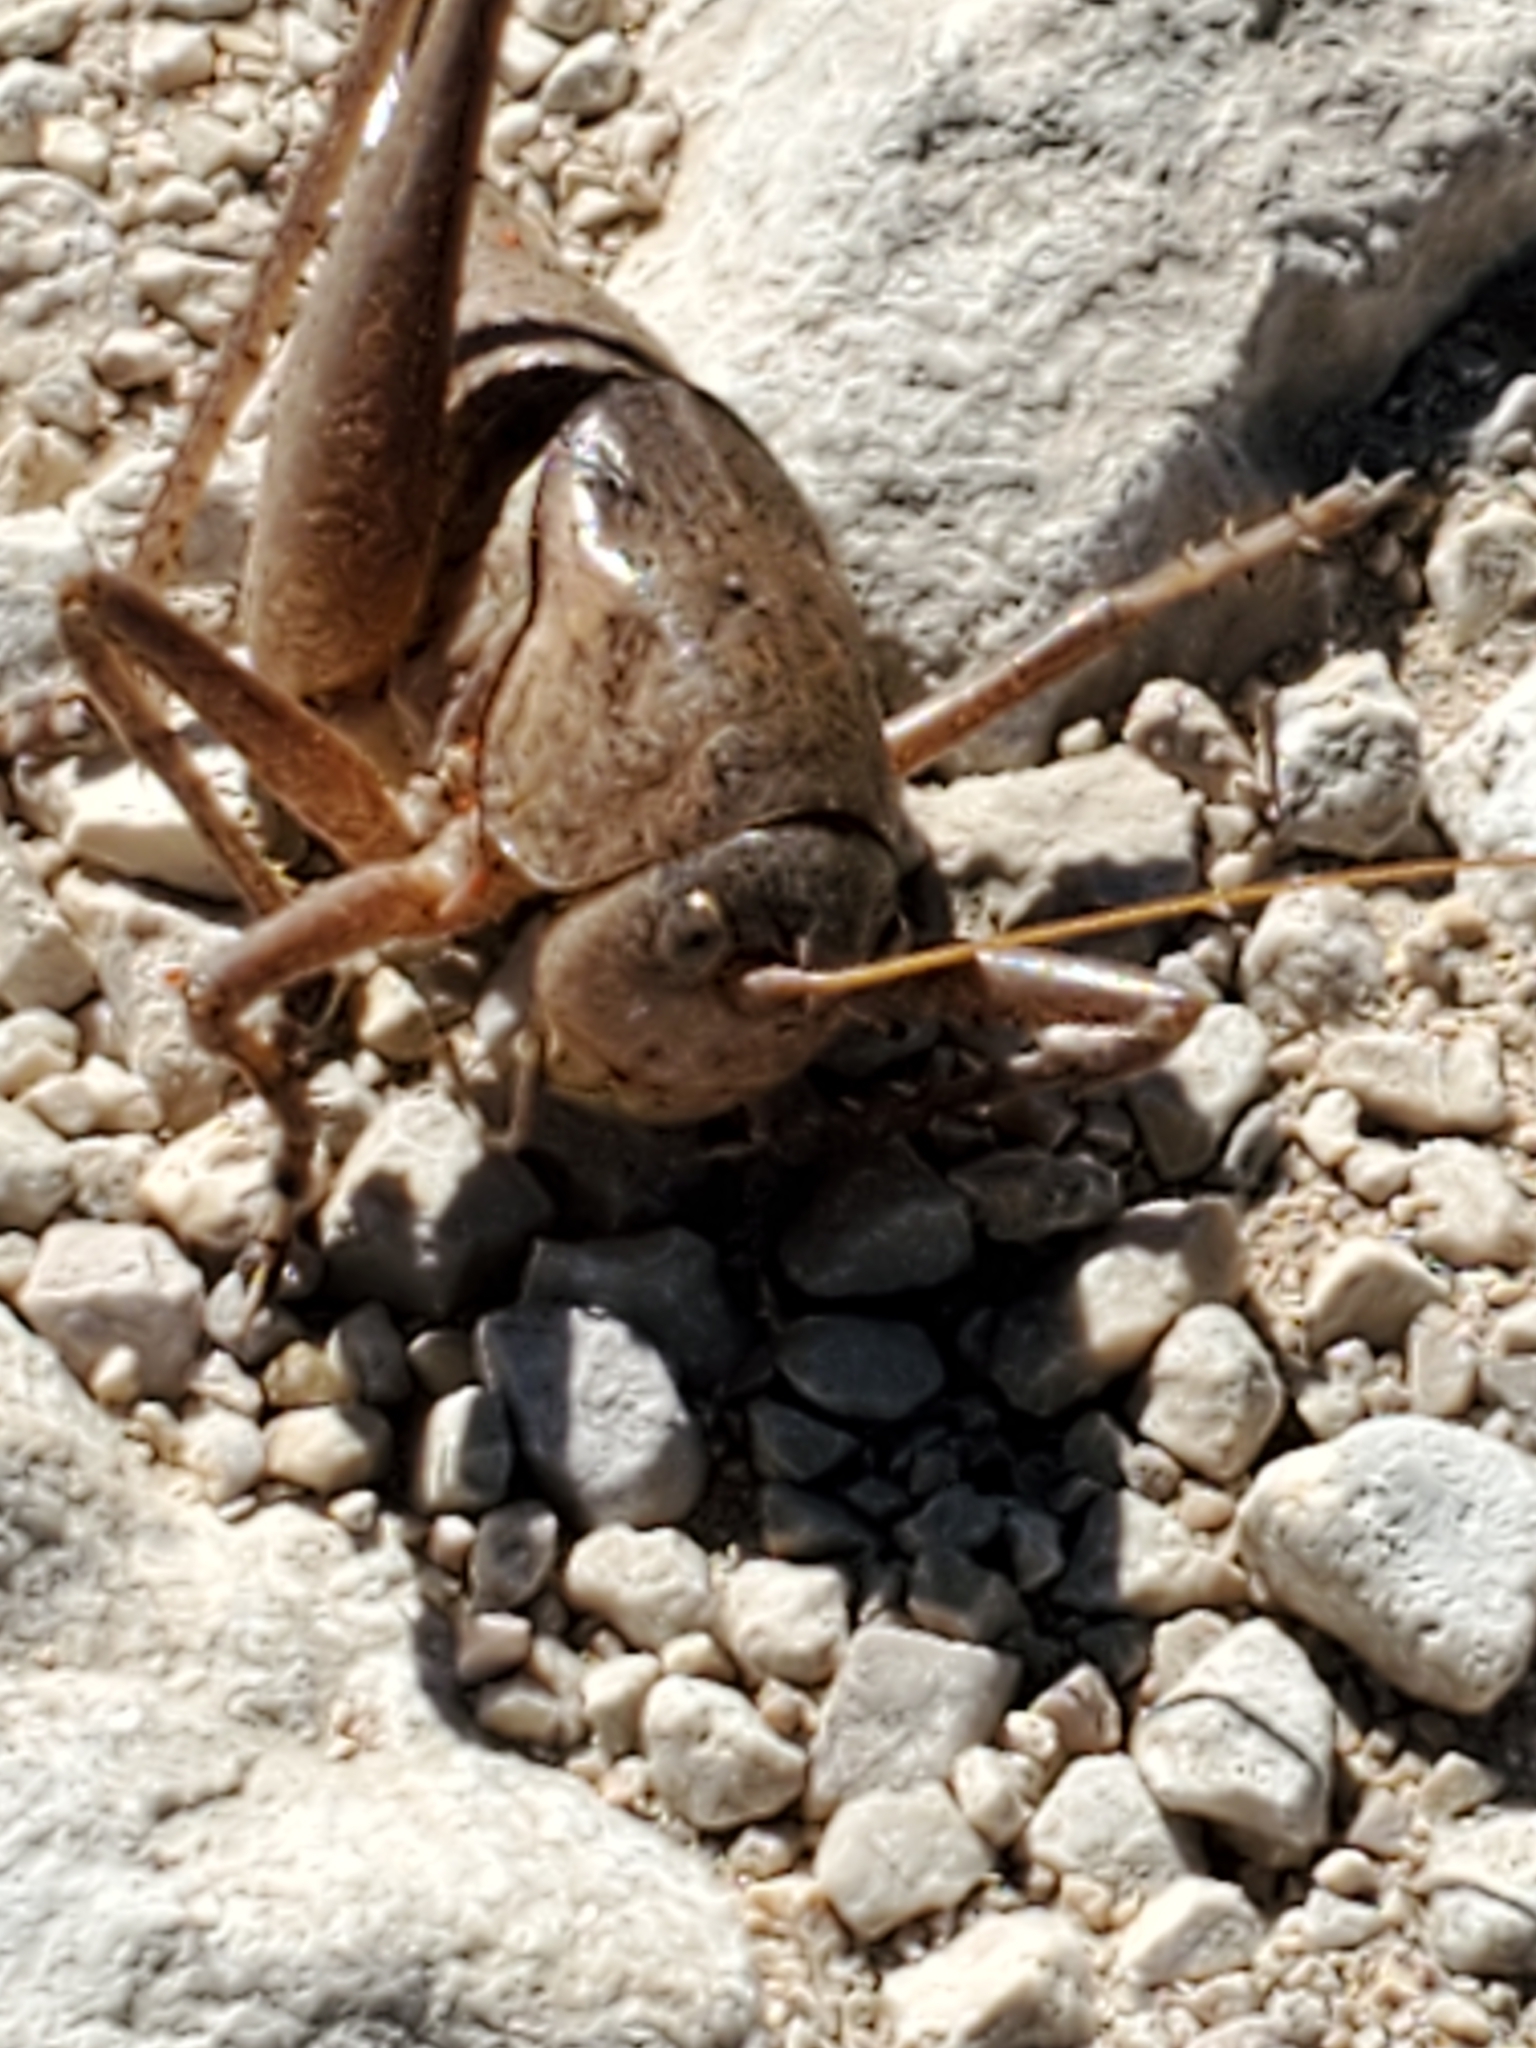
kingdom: Animalia
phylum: Arthropoda
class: Insecta
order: Orthoptera
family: Tettigoniidae
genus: Pediodectes
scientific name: Pediodectes haldemanii
